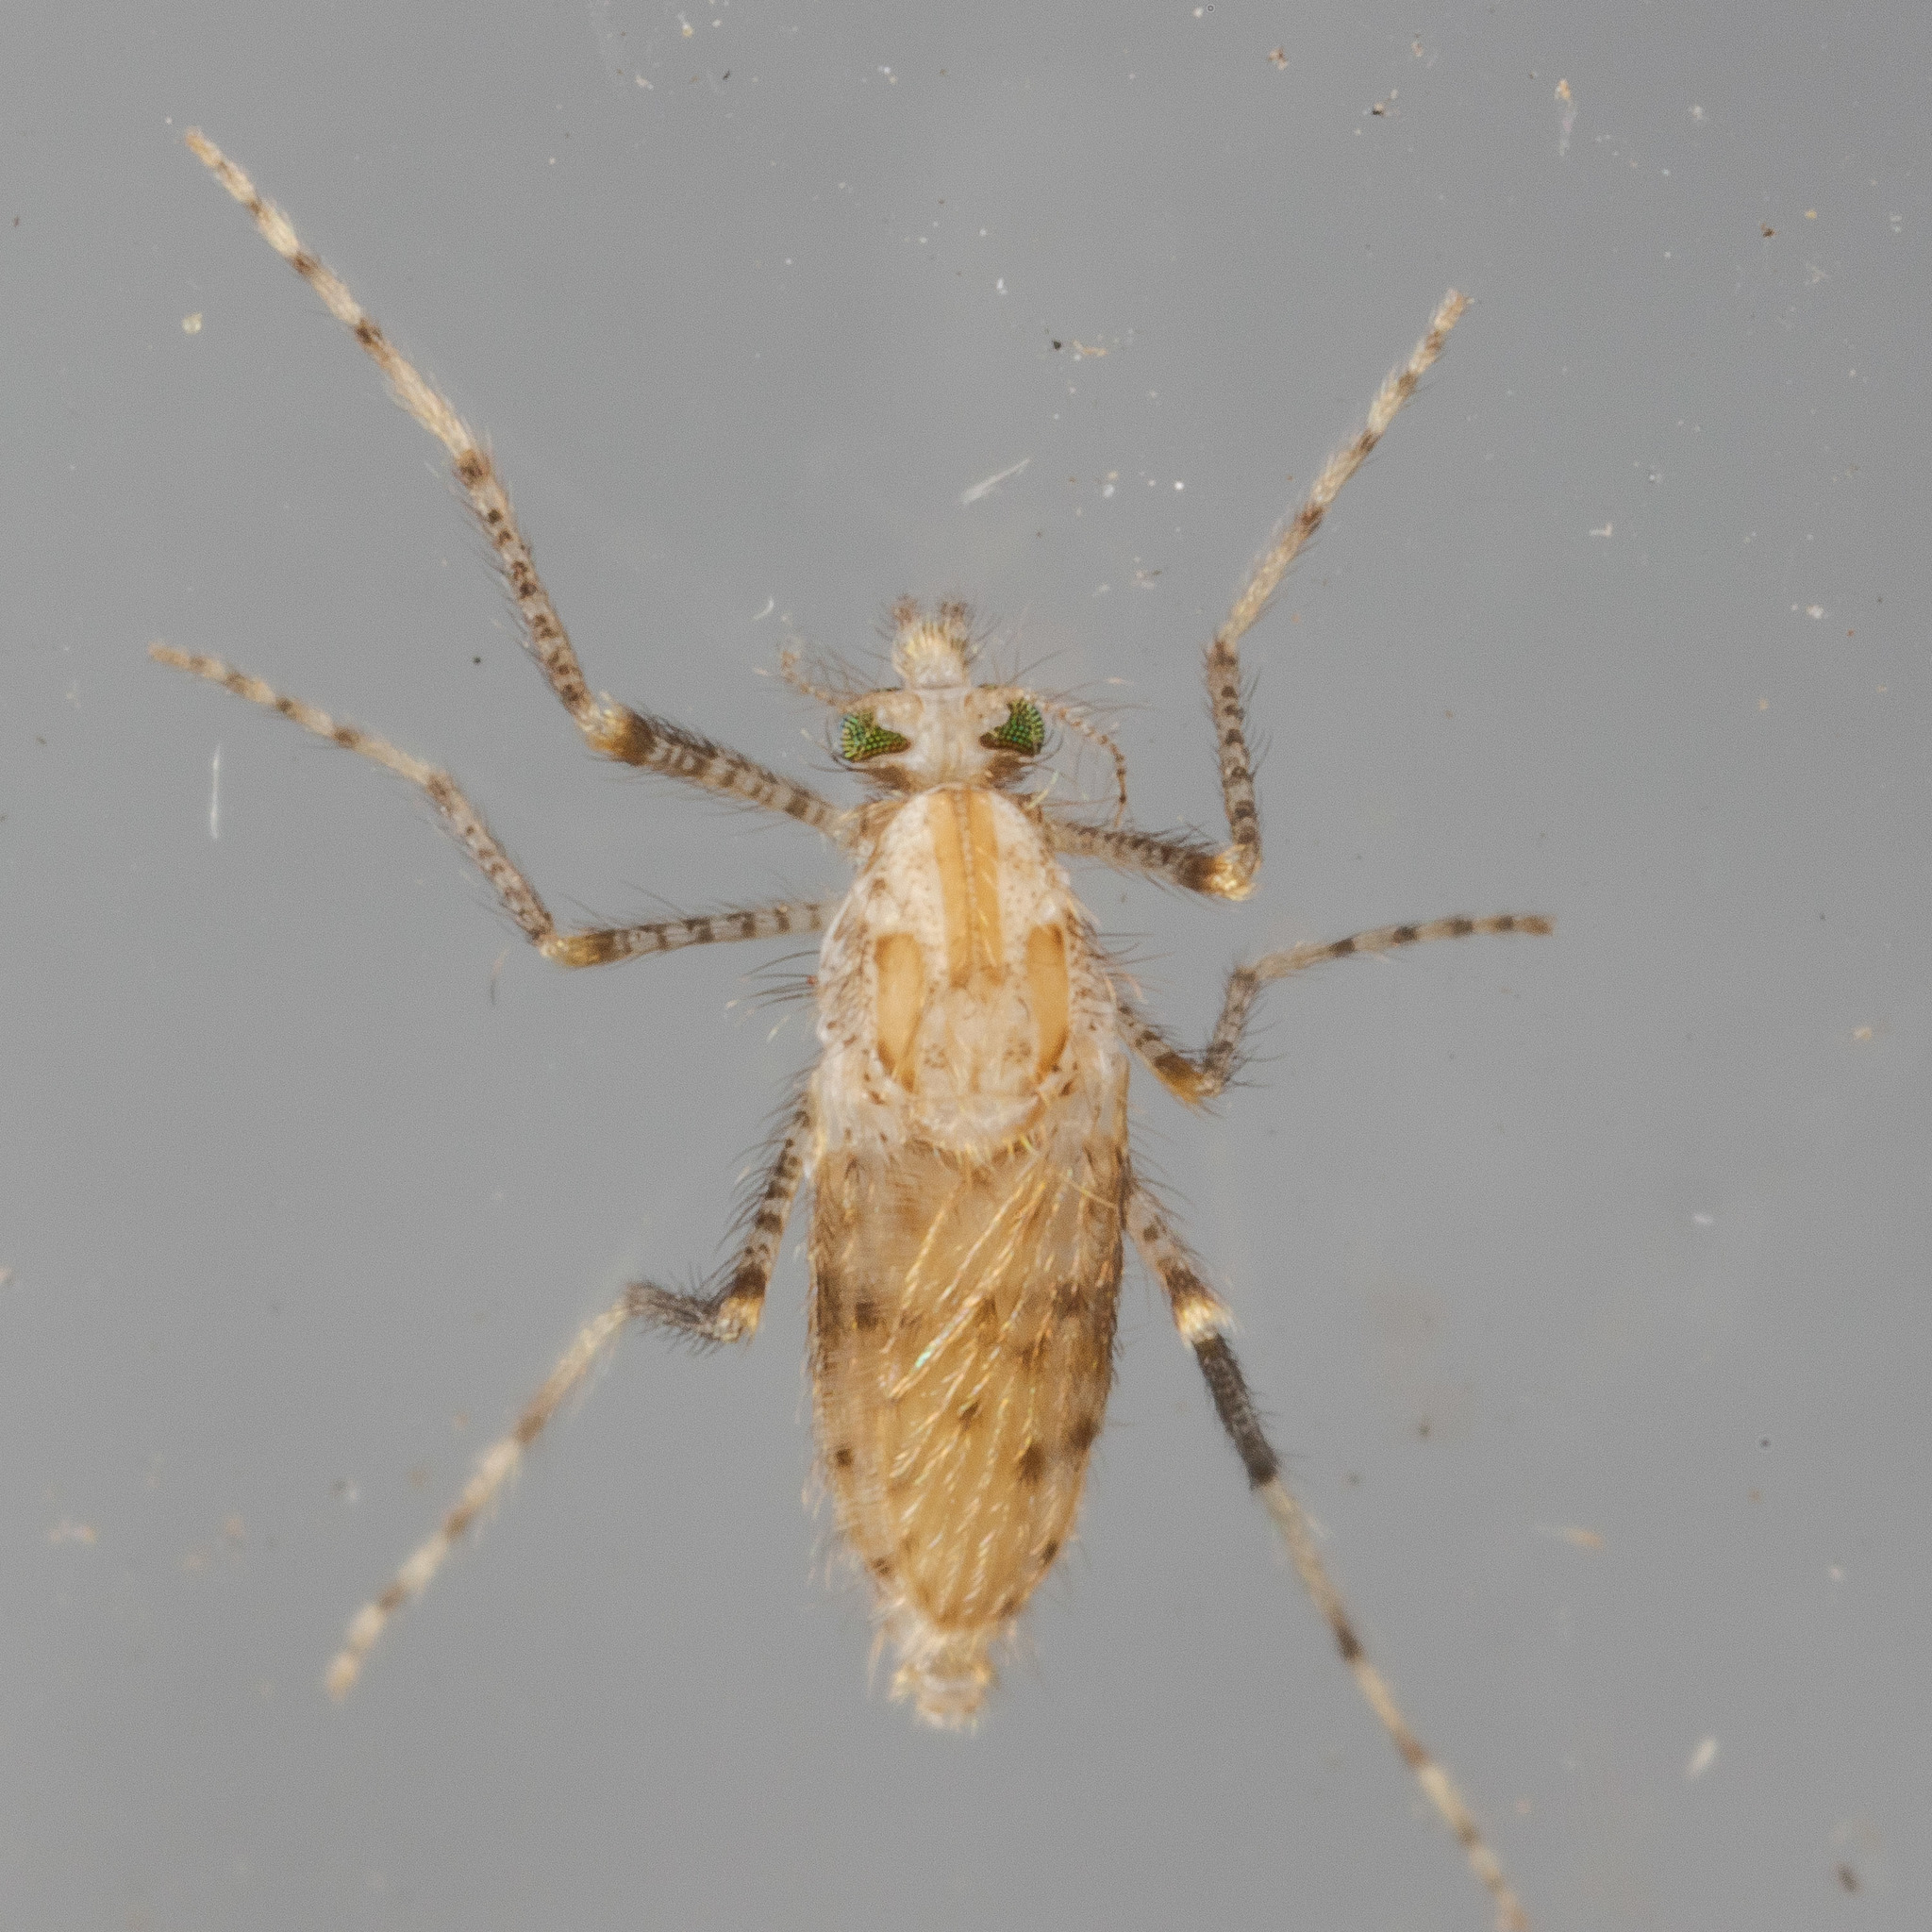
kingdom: Animalia
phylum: Arthropoda
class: Insecta
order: Diptera
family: Chaoboridae
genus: Chaoborus
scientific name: Chaoborus punctipennis
